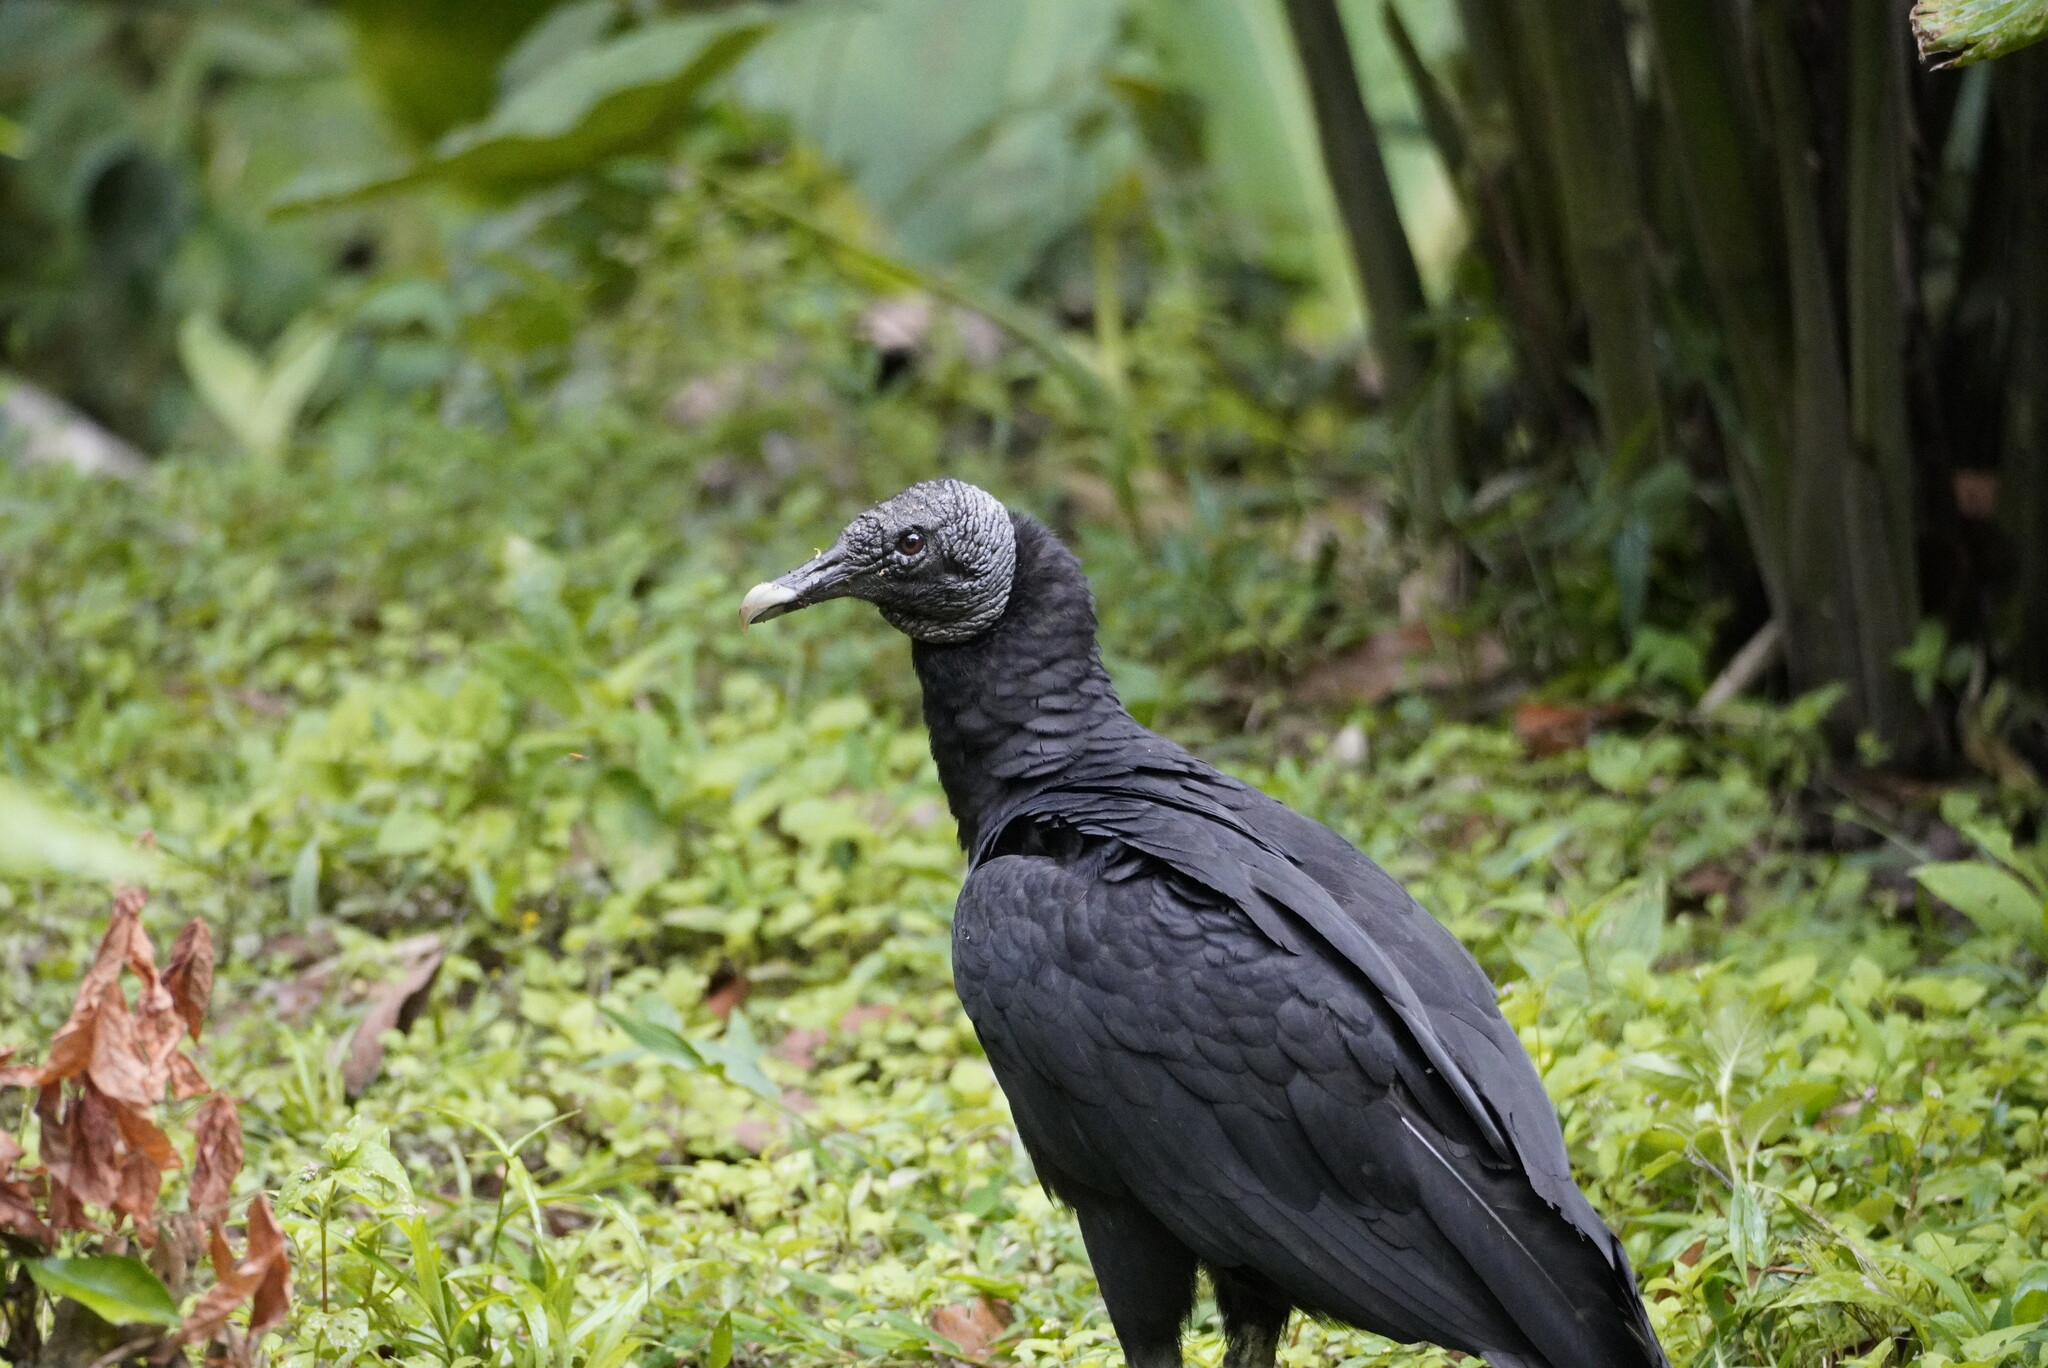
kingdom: Animalia
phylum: Chordata
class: Aves
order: Accipitriformes
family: Cathartidae
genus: Coragyps
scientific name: Coragyps atratus
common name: Black vulture
